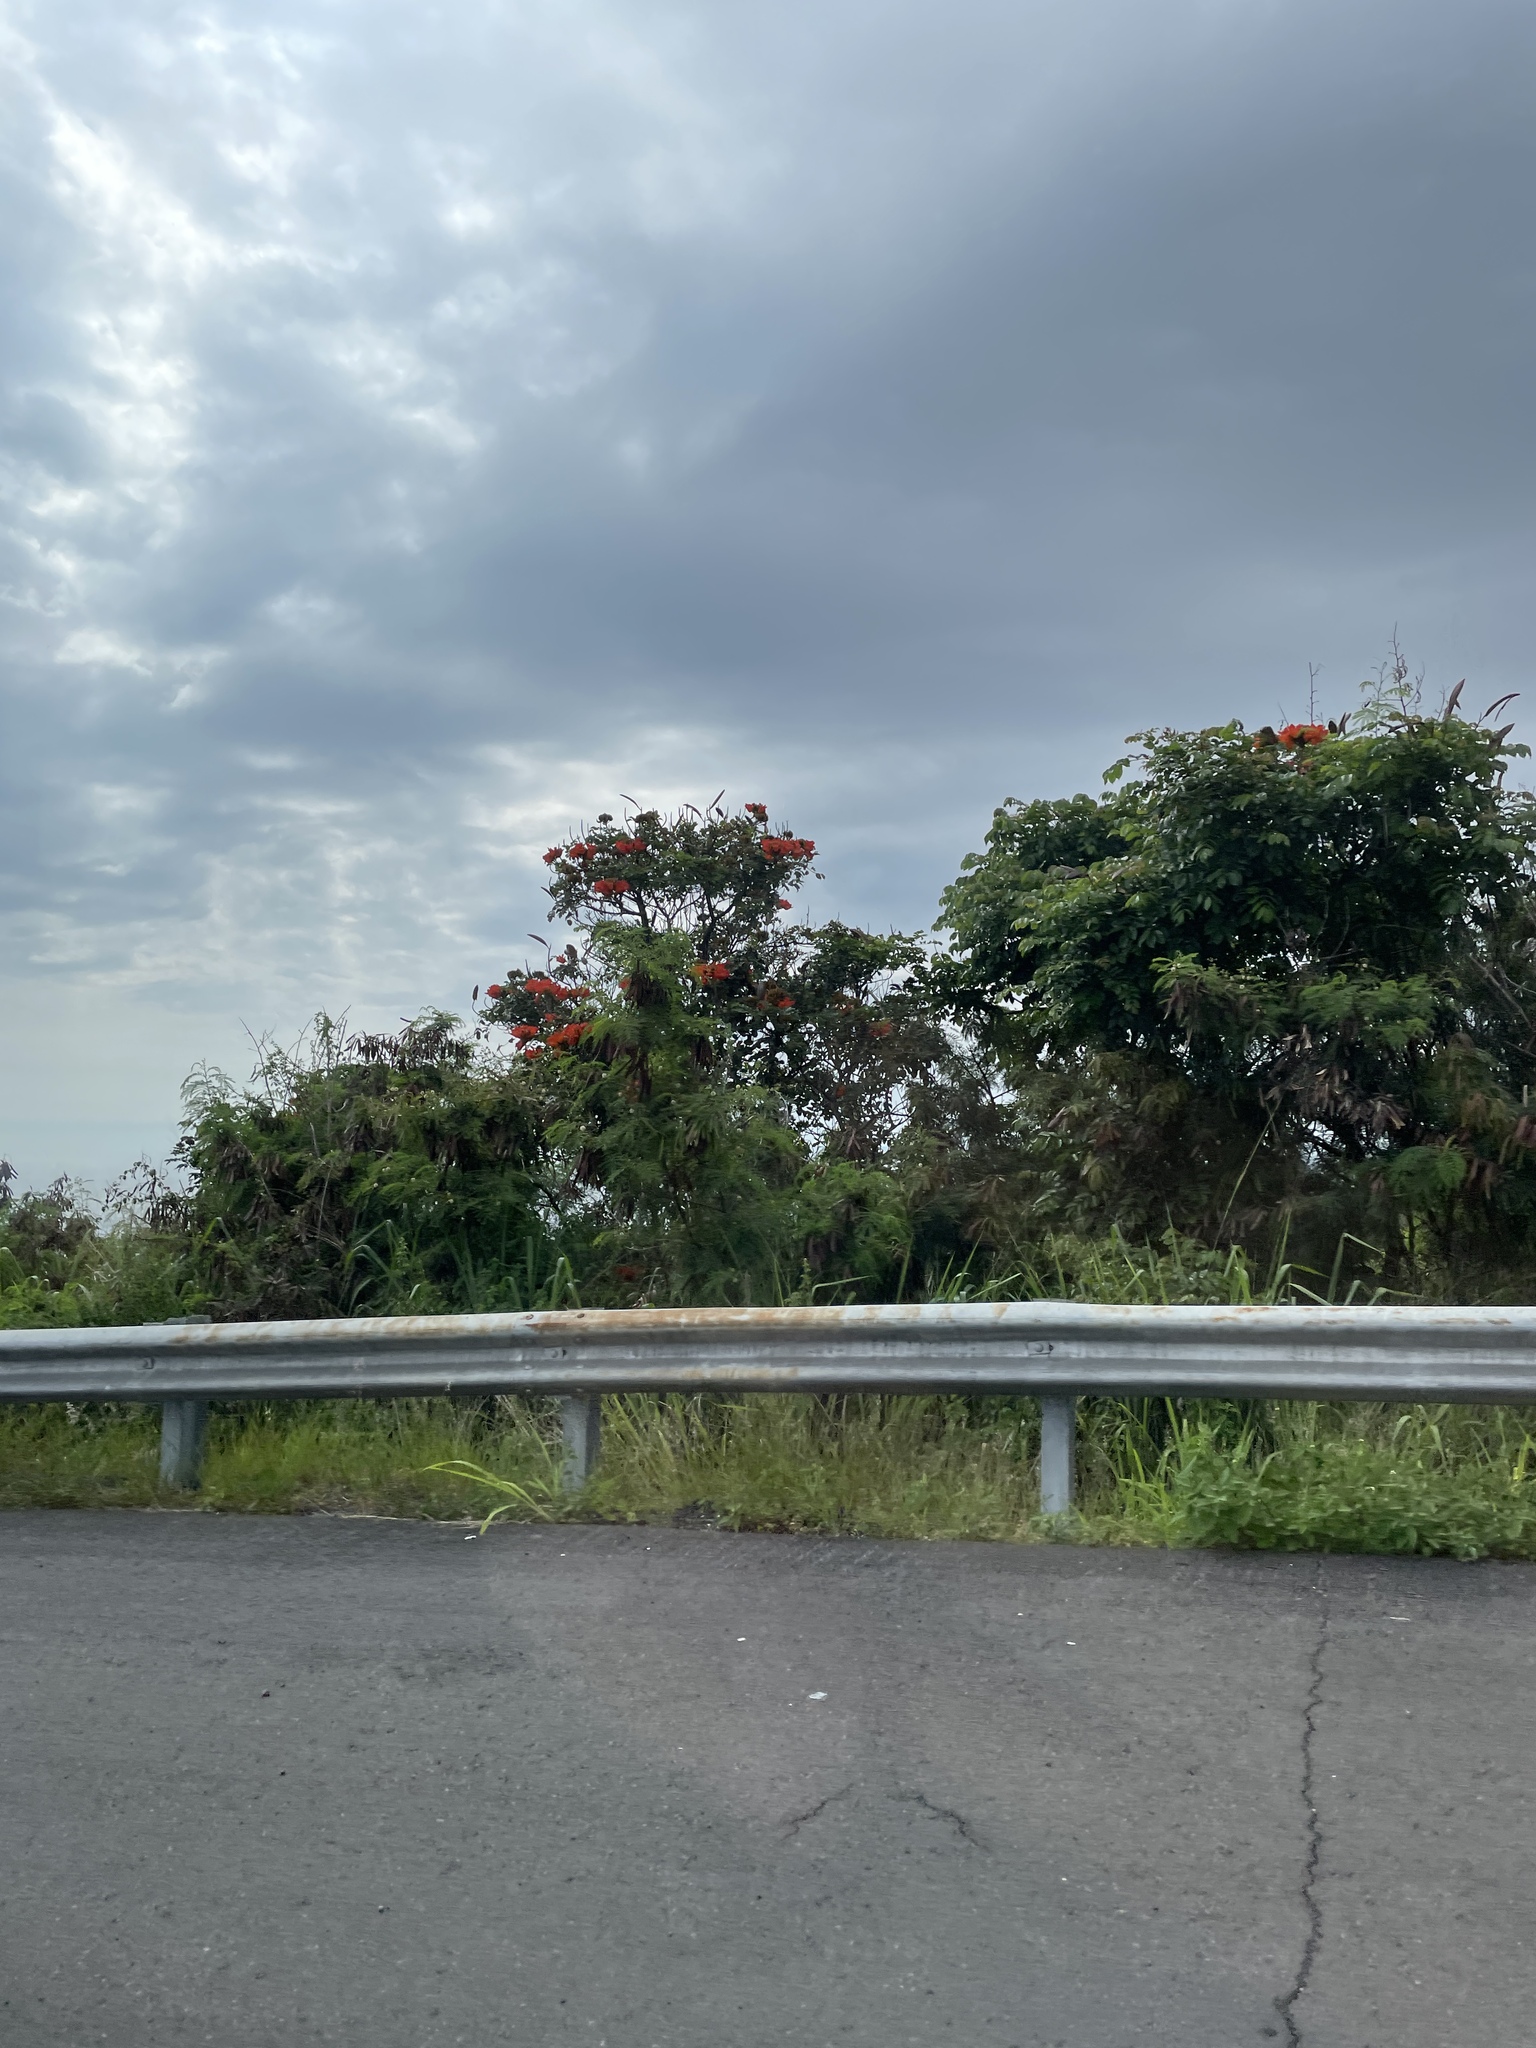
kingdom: Plantae
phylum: Tracheophyta
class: Magnoliopsida
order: Lamiales
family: Bignoniaceae
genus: Spathodea
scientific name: Spathodea campanulata
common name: African tuliptree
